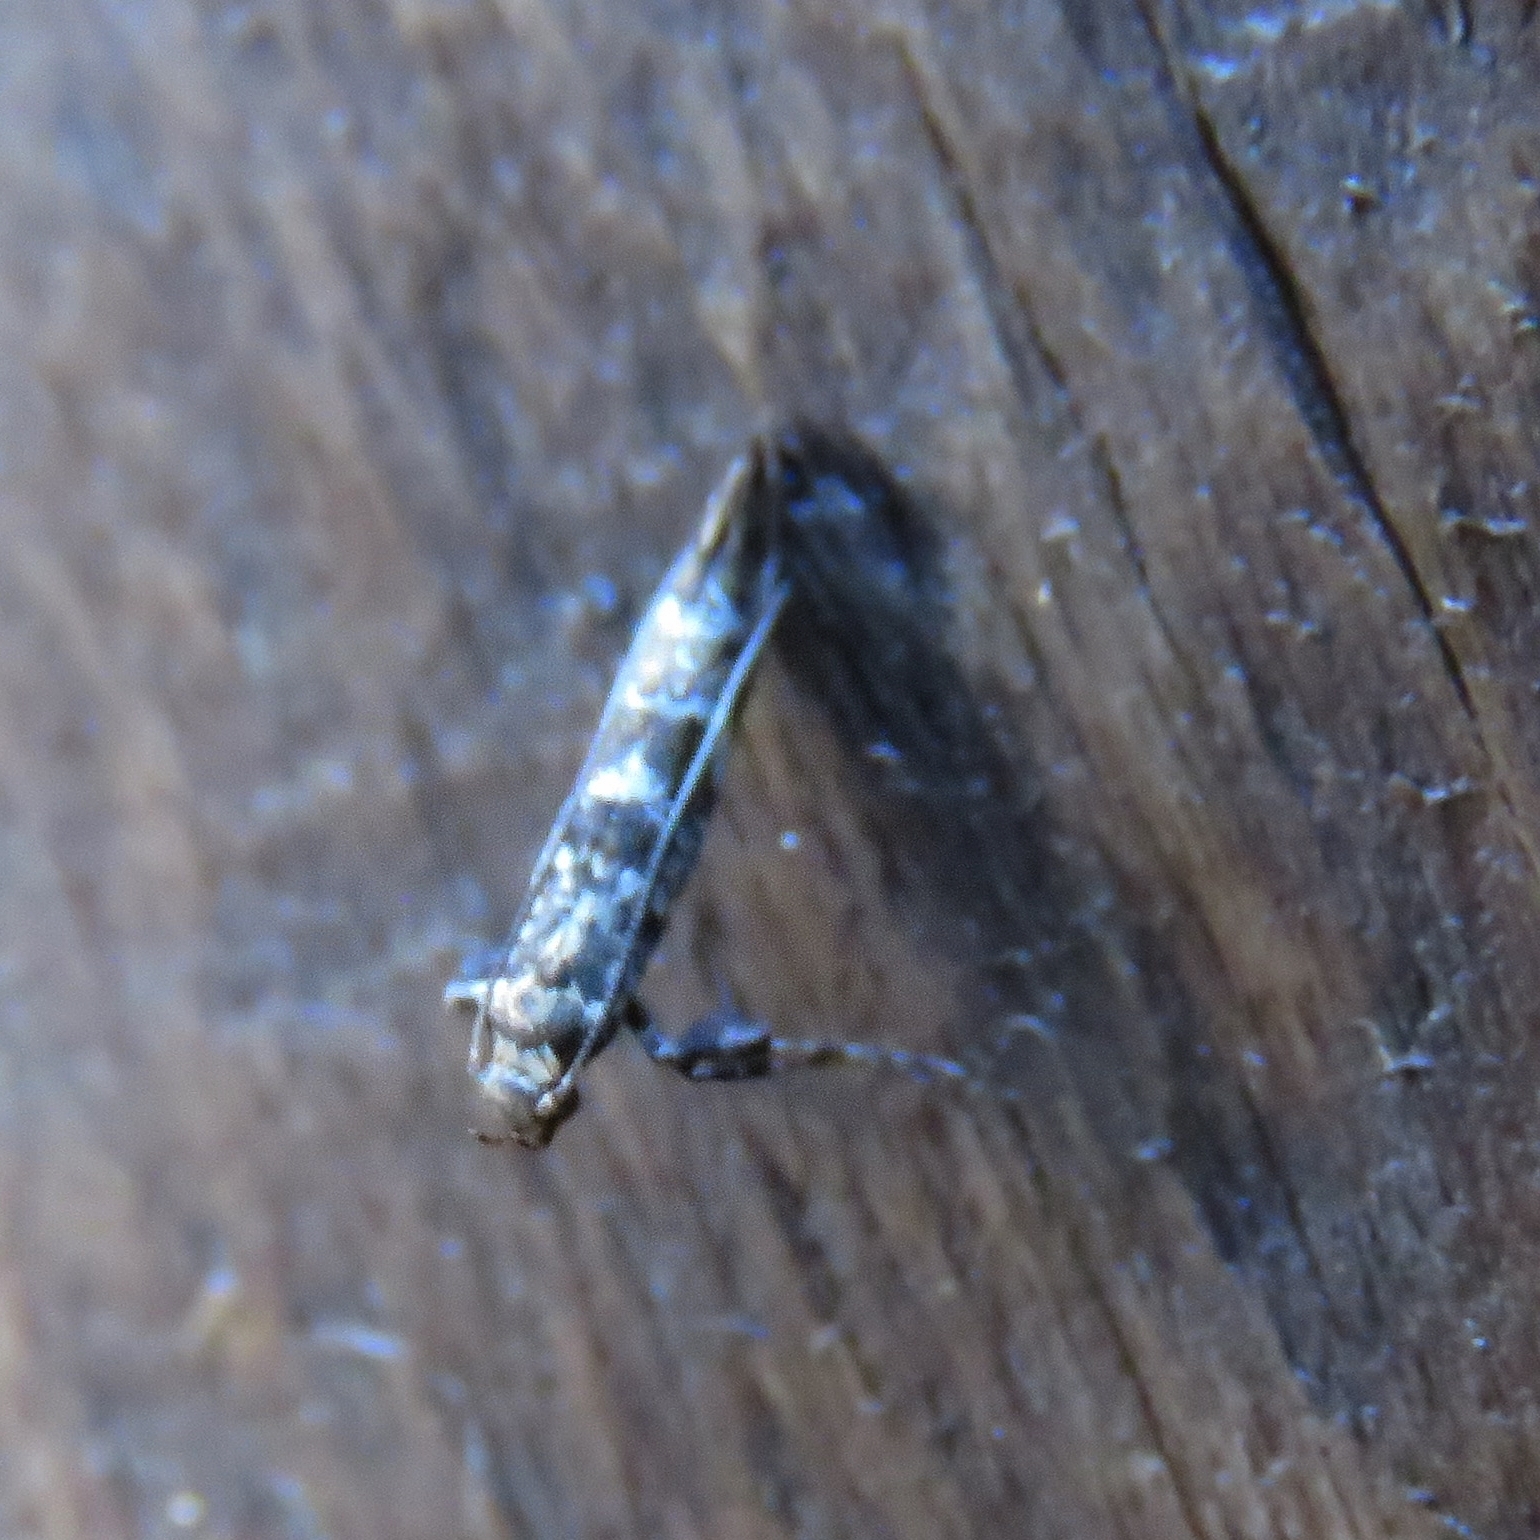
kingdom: Animalia
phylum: Arthropoda
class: Insecta
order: Lepidoptera
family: Gracillariidae
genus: Gracillaria
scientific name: Gracillaria syringella
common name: Common slender
